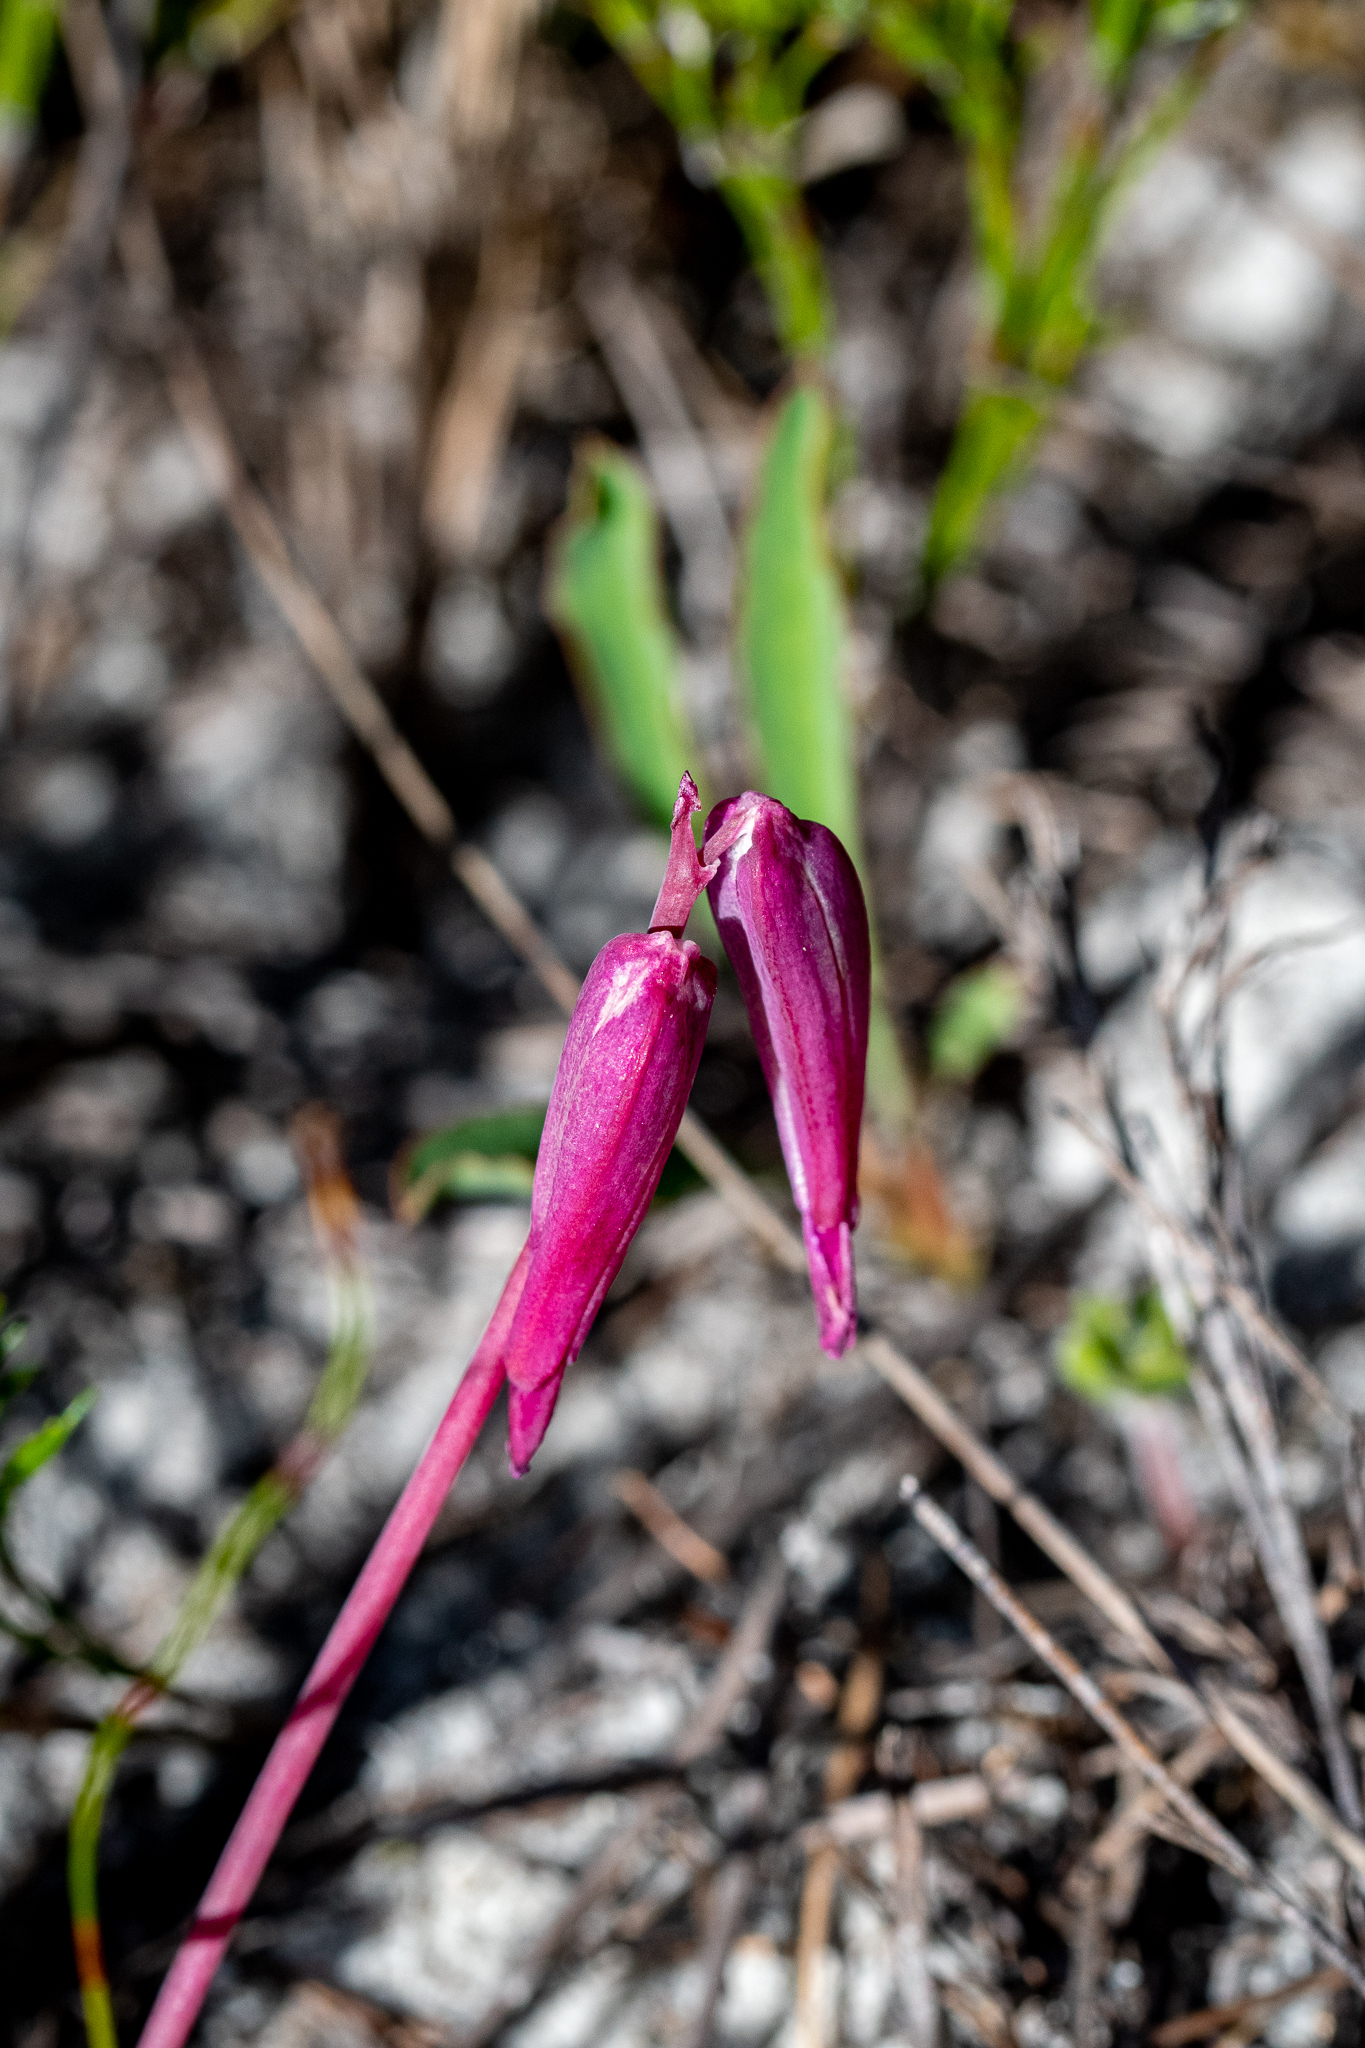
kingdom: Plantae
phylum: Tracheophyta
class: Liliopsida
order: Asparagales
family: Asparagaceae
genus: Lachenalia
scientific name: Lachenalia punctata
